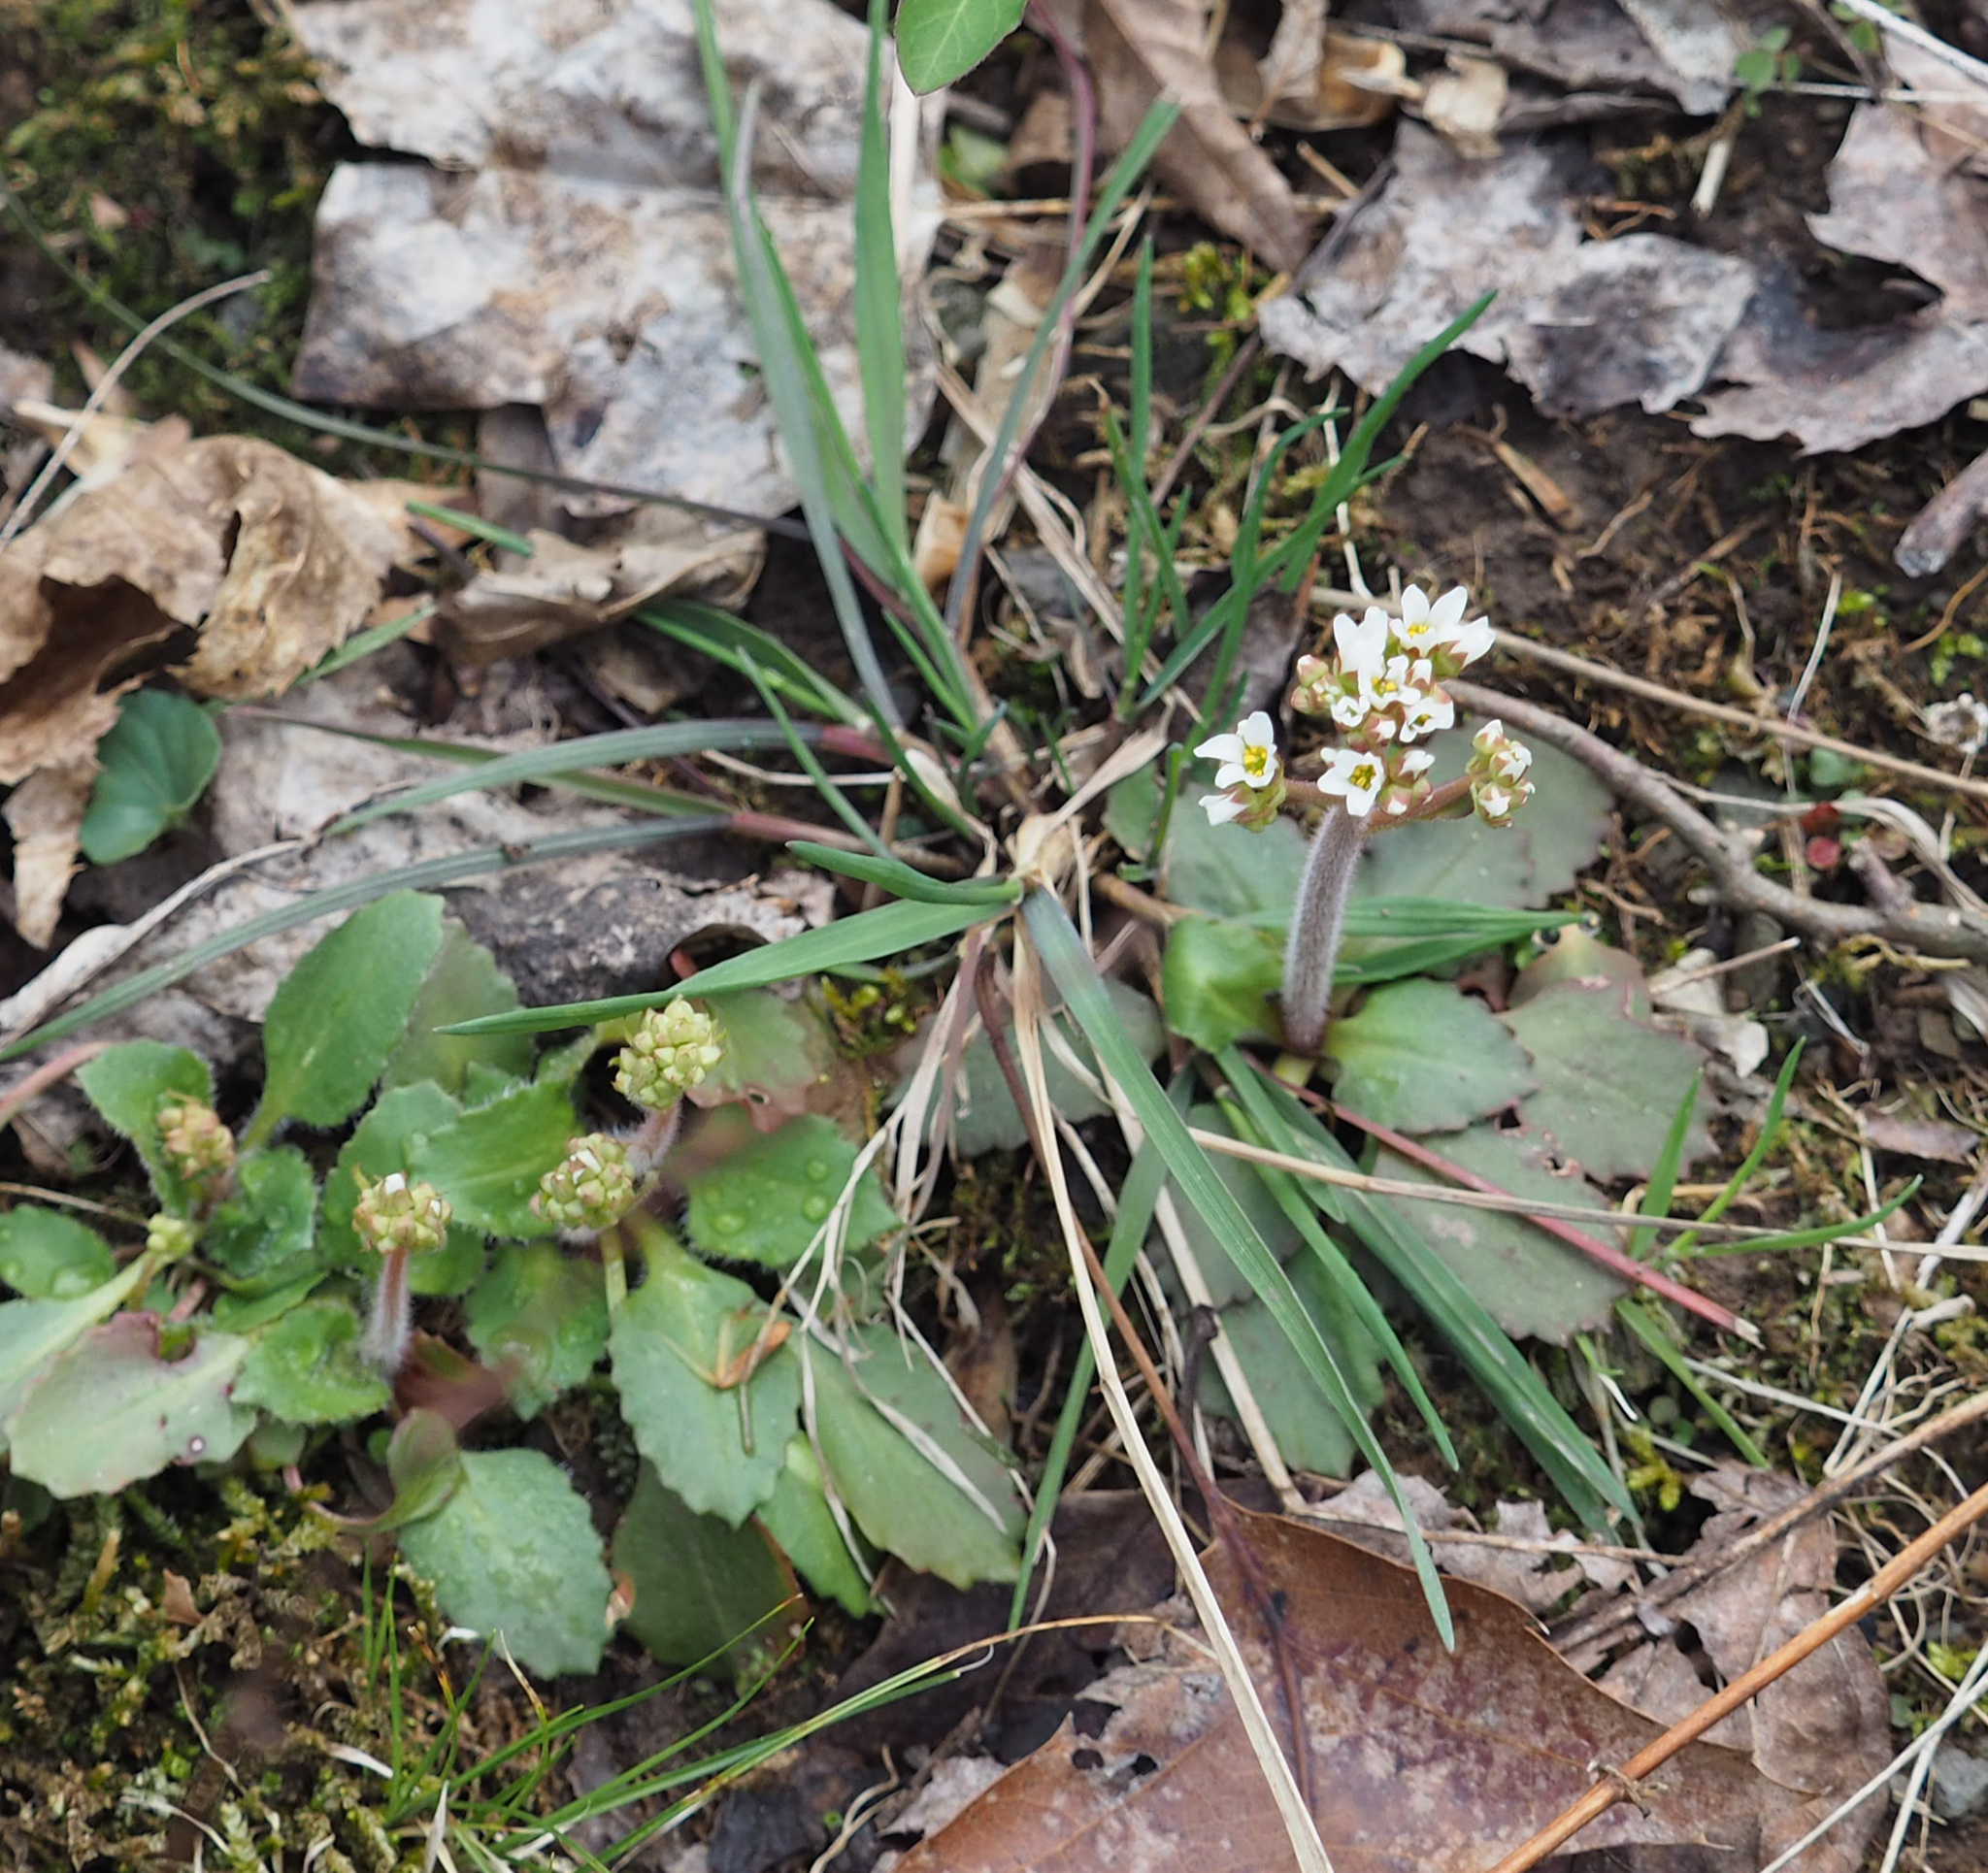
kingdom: Plantae
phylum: Tracheophyta
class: Magnoliopsida
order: Saxifragales
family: Saxifragaceae
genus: Micranthes
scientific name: Micranthes virginiensis
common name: Early saxifrage
